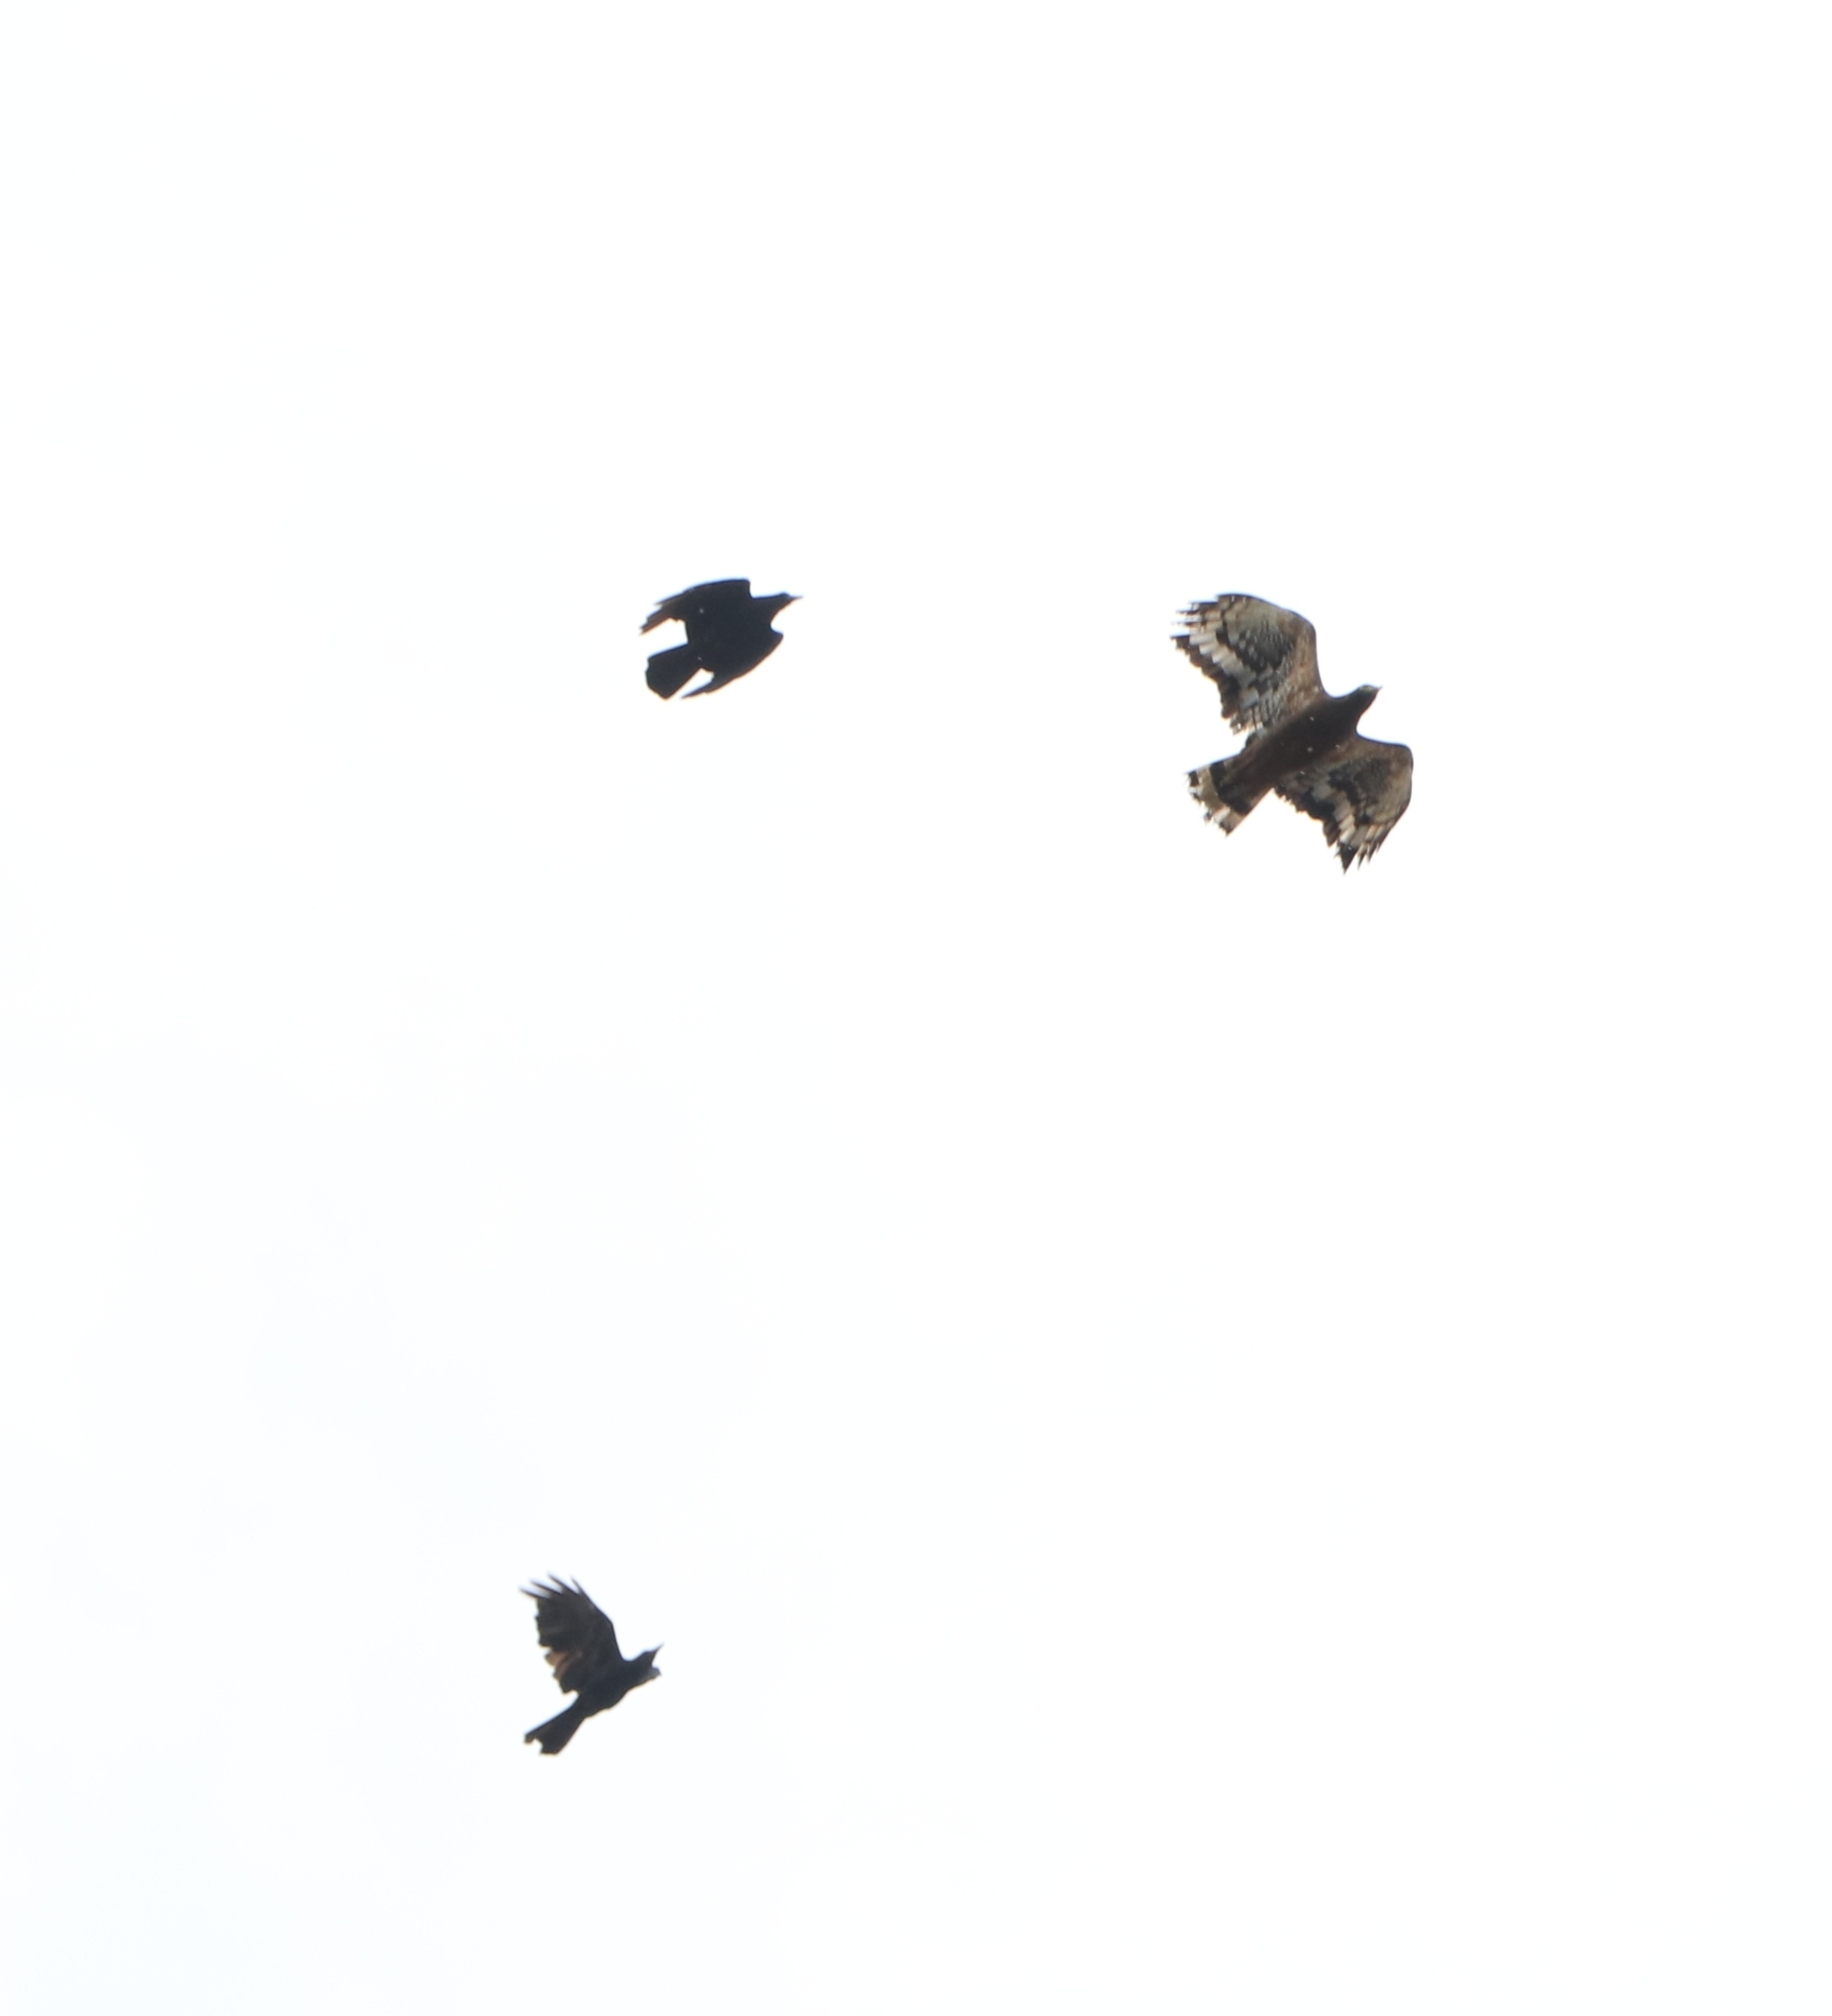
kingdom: Animalia
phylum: Chordata
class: Aves
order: Passeriformes
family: Corvidae
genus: Corvus
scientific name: Corvus macrorhynchos
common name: Large-billed crow
